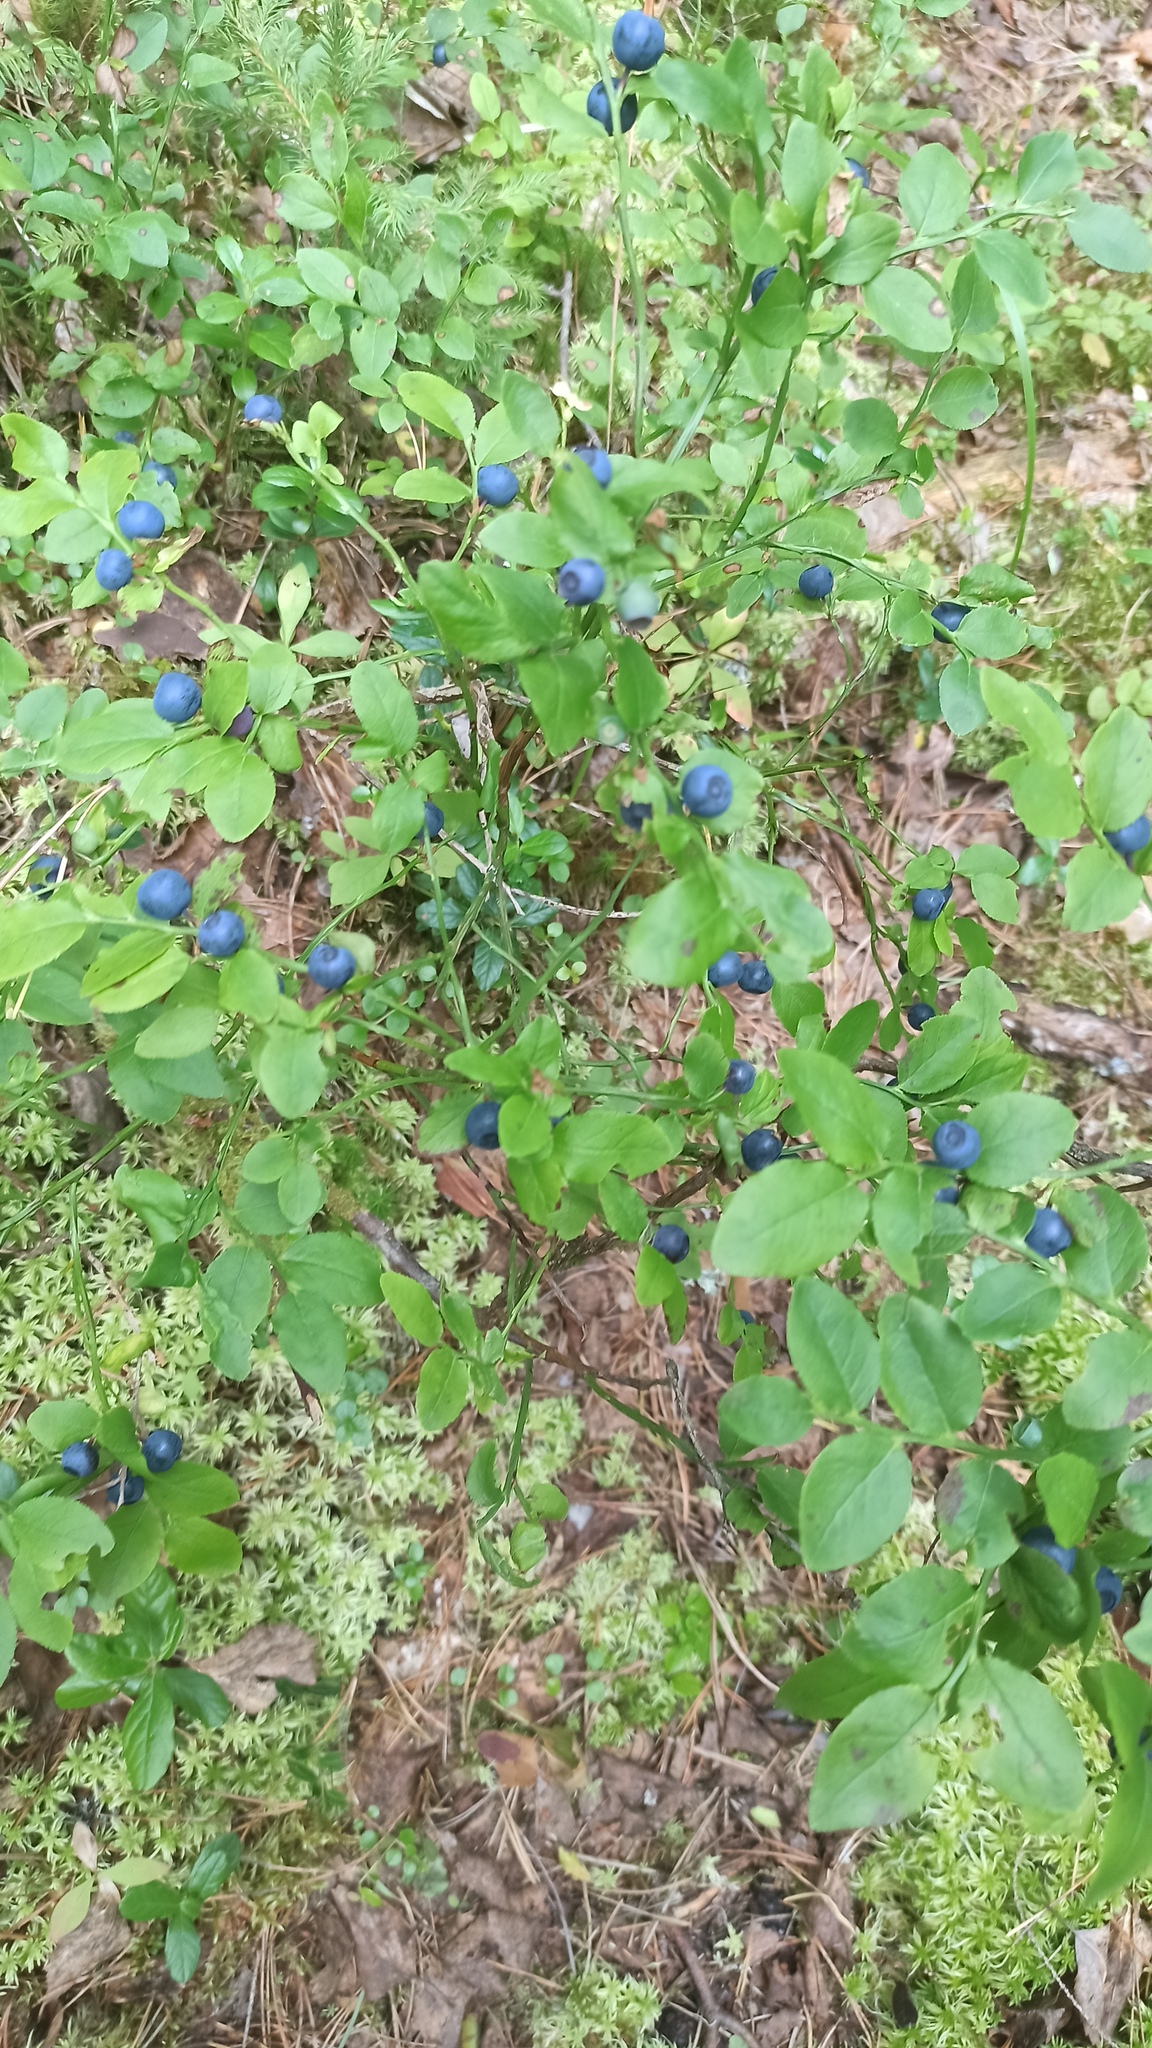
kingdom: Plantae
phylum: Tracheophyta
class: Magnoliopsida
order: Ericales
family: Ericaceae
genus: Vaccinium
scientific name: Vaccinium myrtillus
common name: Bilberry
